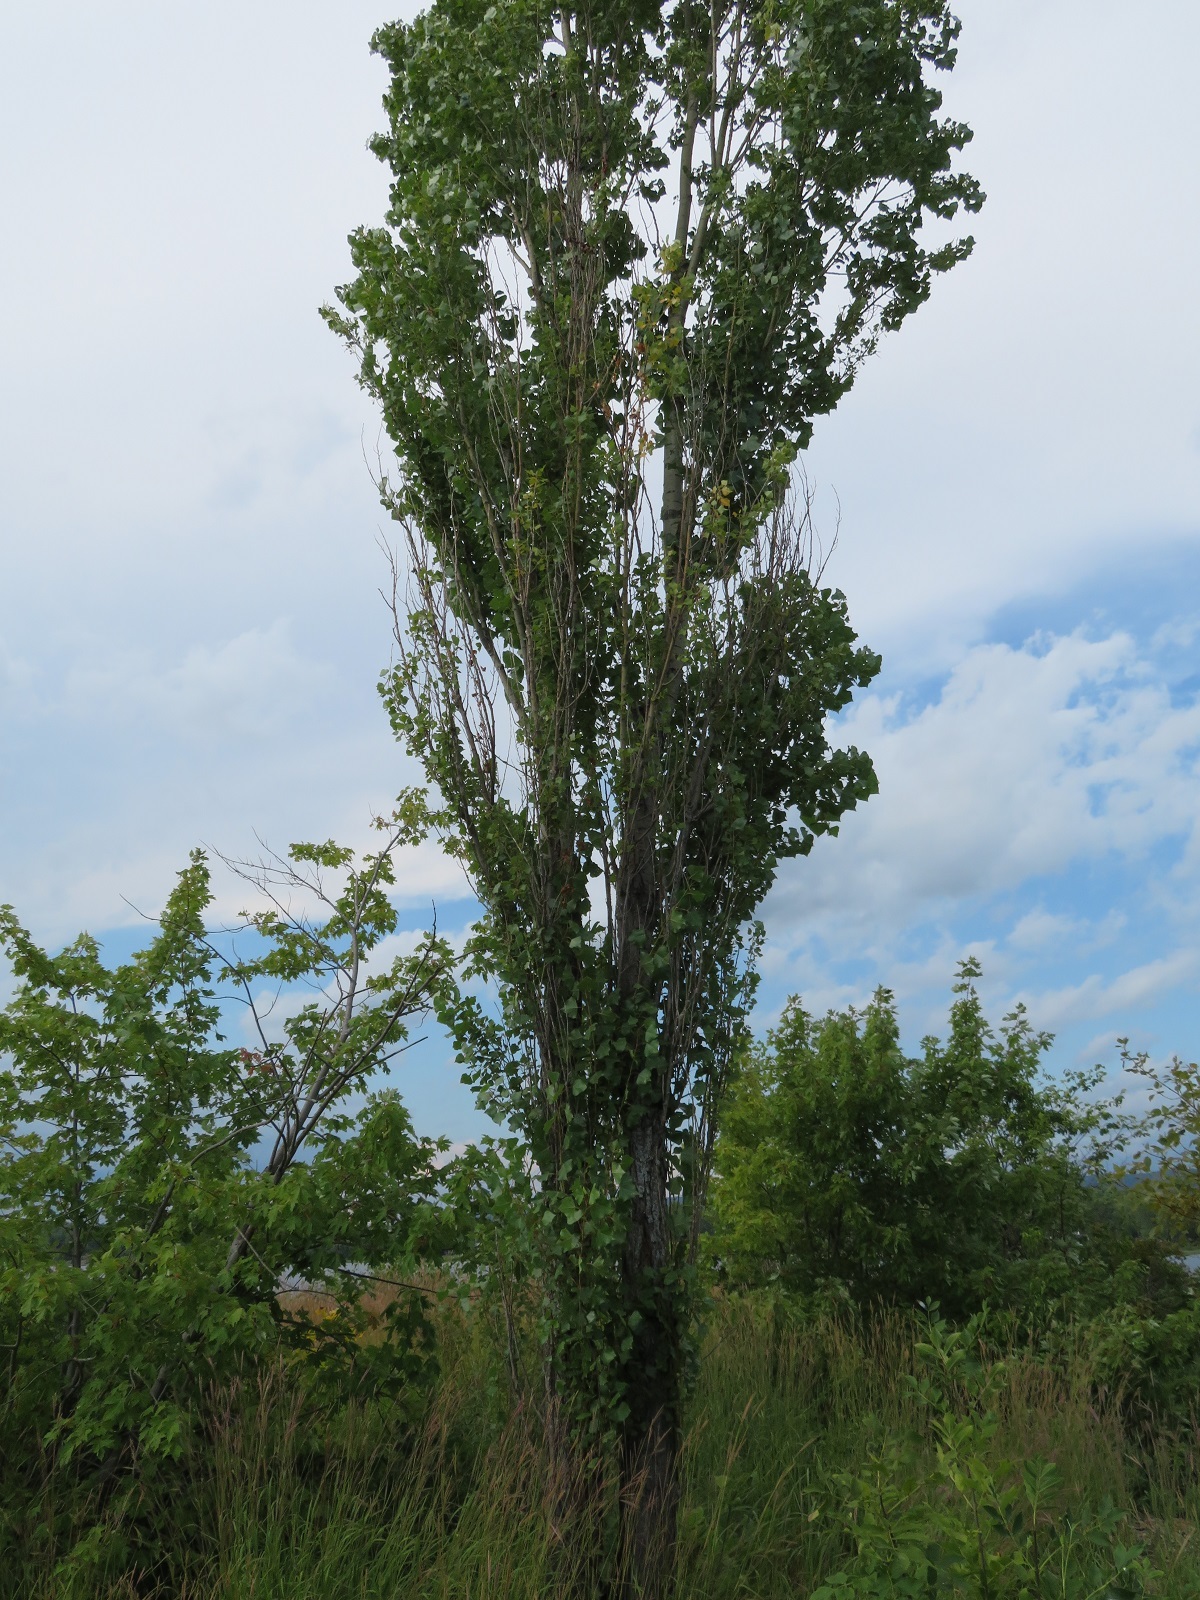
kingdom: Plantae
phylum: Tracheophyta
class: Magnoliopsida
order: Malpighiales
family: Salicaceae
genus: Populus
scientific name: Populus nigra
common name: Black poplar
